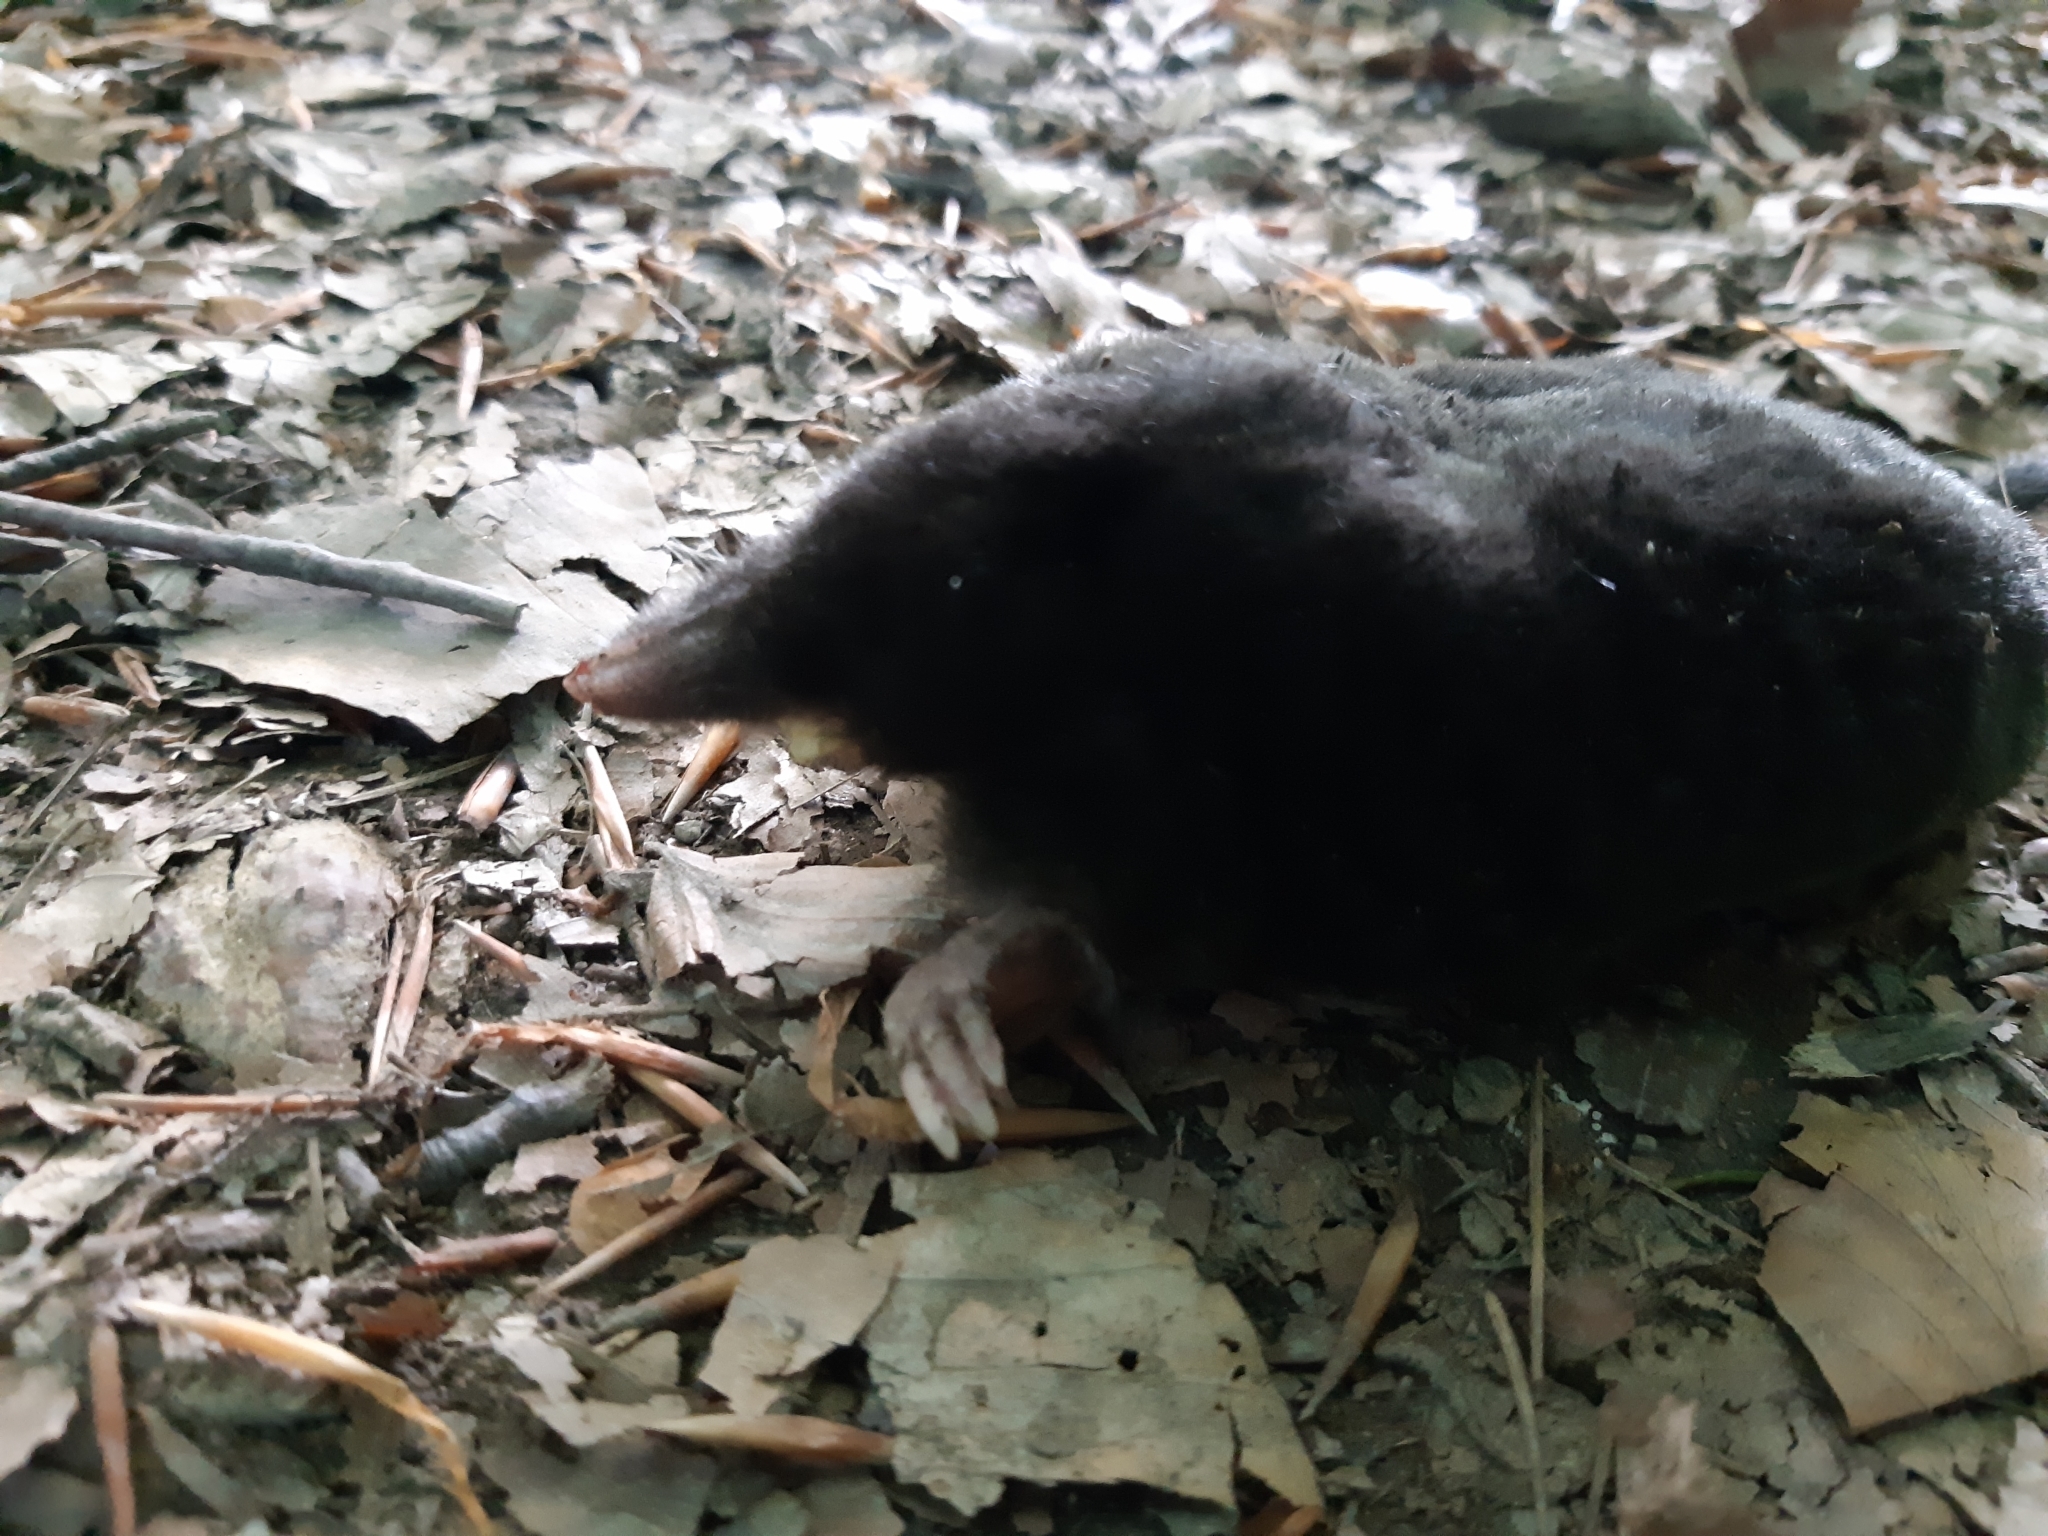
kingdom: Animalia
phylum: Chordata
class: Mammalia
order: Soricomorpha
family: Talpidae
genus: Talpa
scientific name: Talpa europaea
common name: European mole
